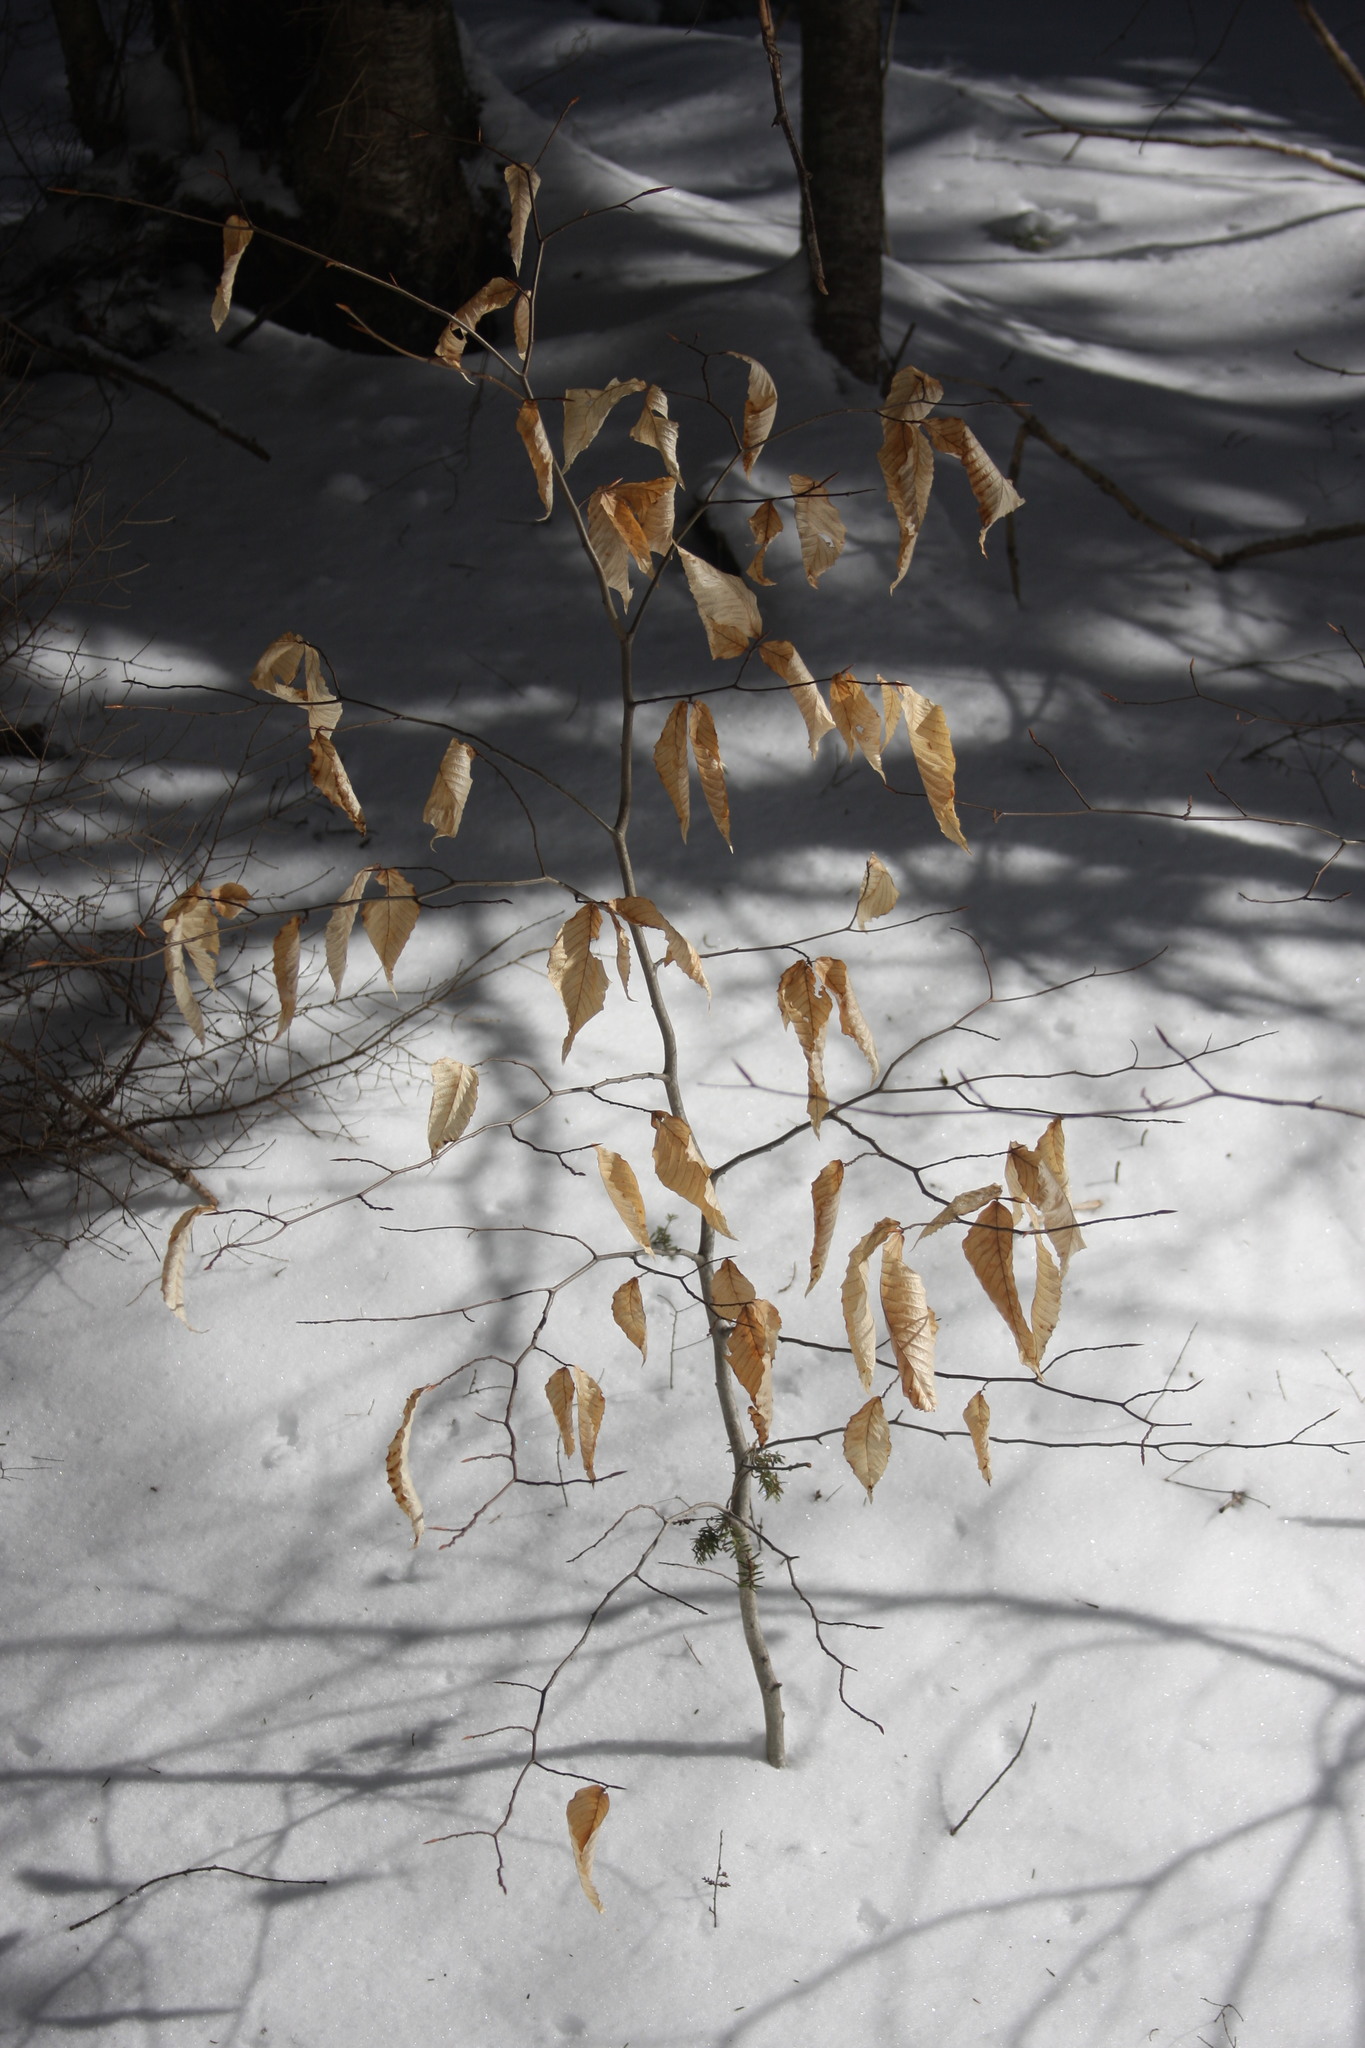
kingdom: Plantae
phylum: Tracheophyta
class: Magnoliopsida
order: Fagales
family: Fagaceae
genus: Fagus
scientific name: Fagus grandifolia
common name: American beech
